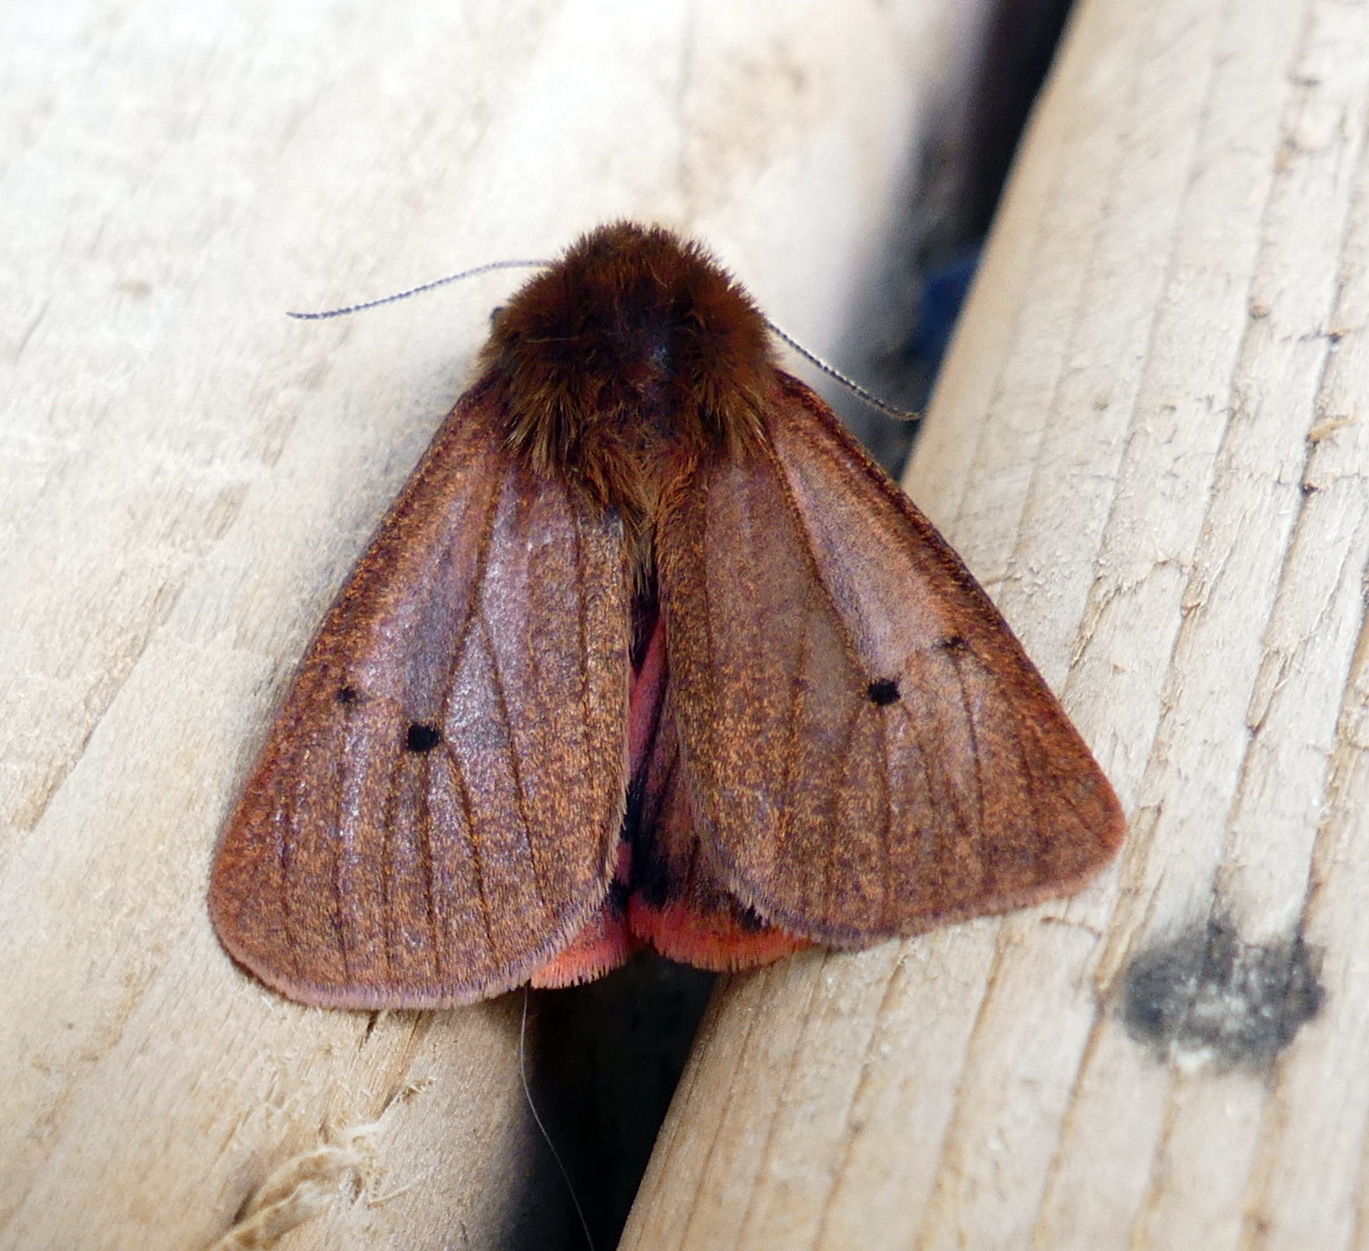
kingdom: Animalia
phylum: Arthropoda
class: Insecta
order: Lepidoptera
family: Erebidae
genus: Phragmatobia
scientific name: Phragmatobia fuliginosa
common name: Ruby tiger
